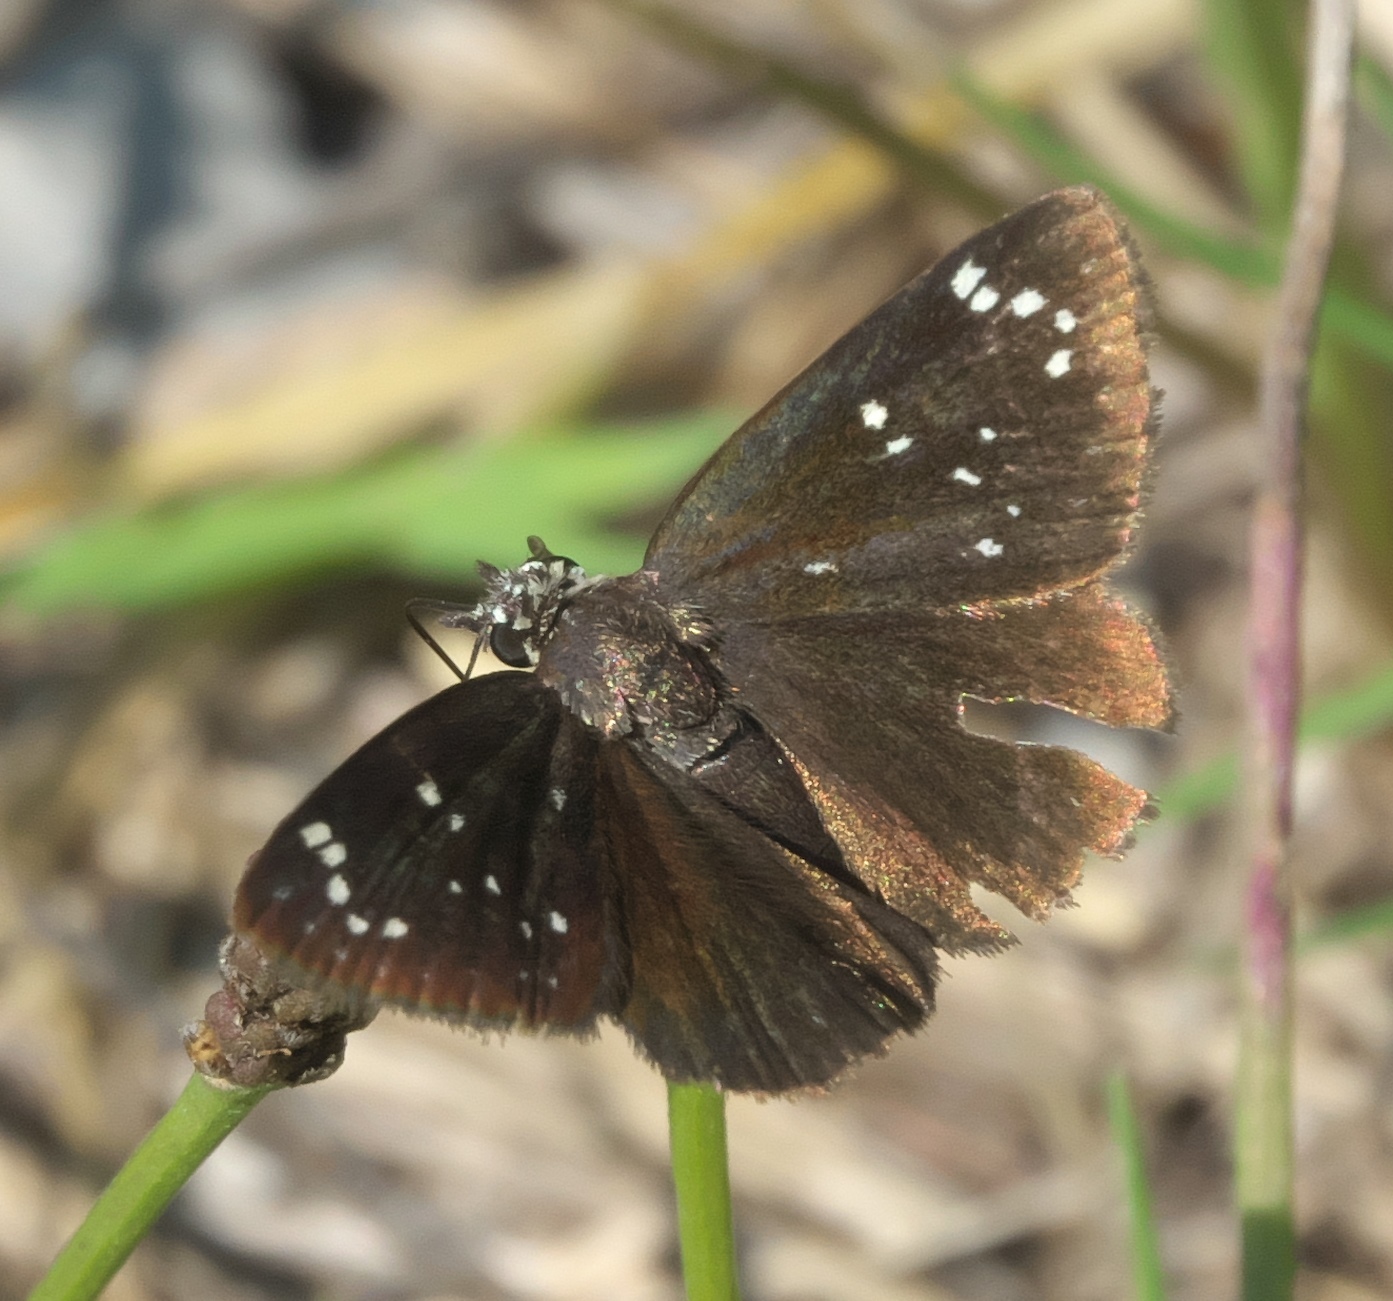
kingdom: Animalia
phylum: Arthropoda
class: Insecta
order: Lepidoptera
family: Hesperiidae
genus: Pholisora
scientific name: Pholisora catullus
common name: Common sootywing
